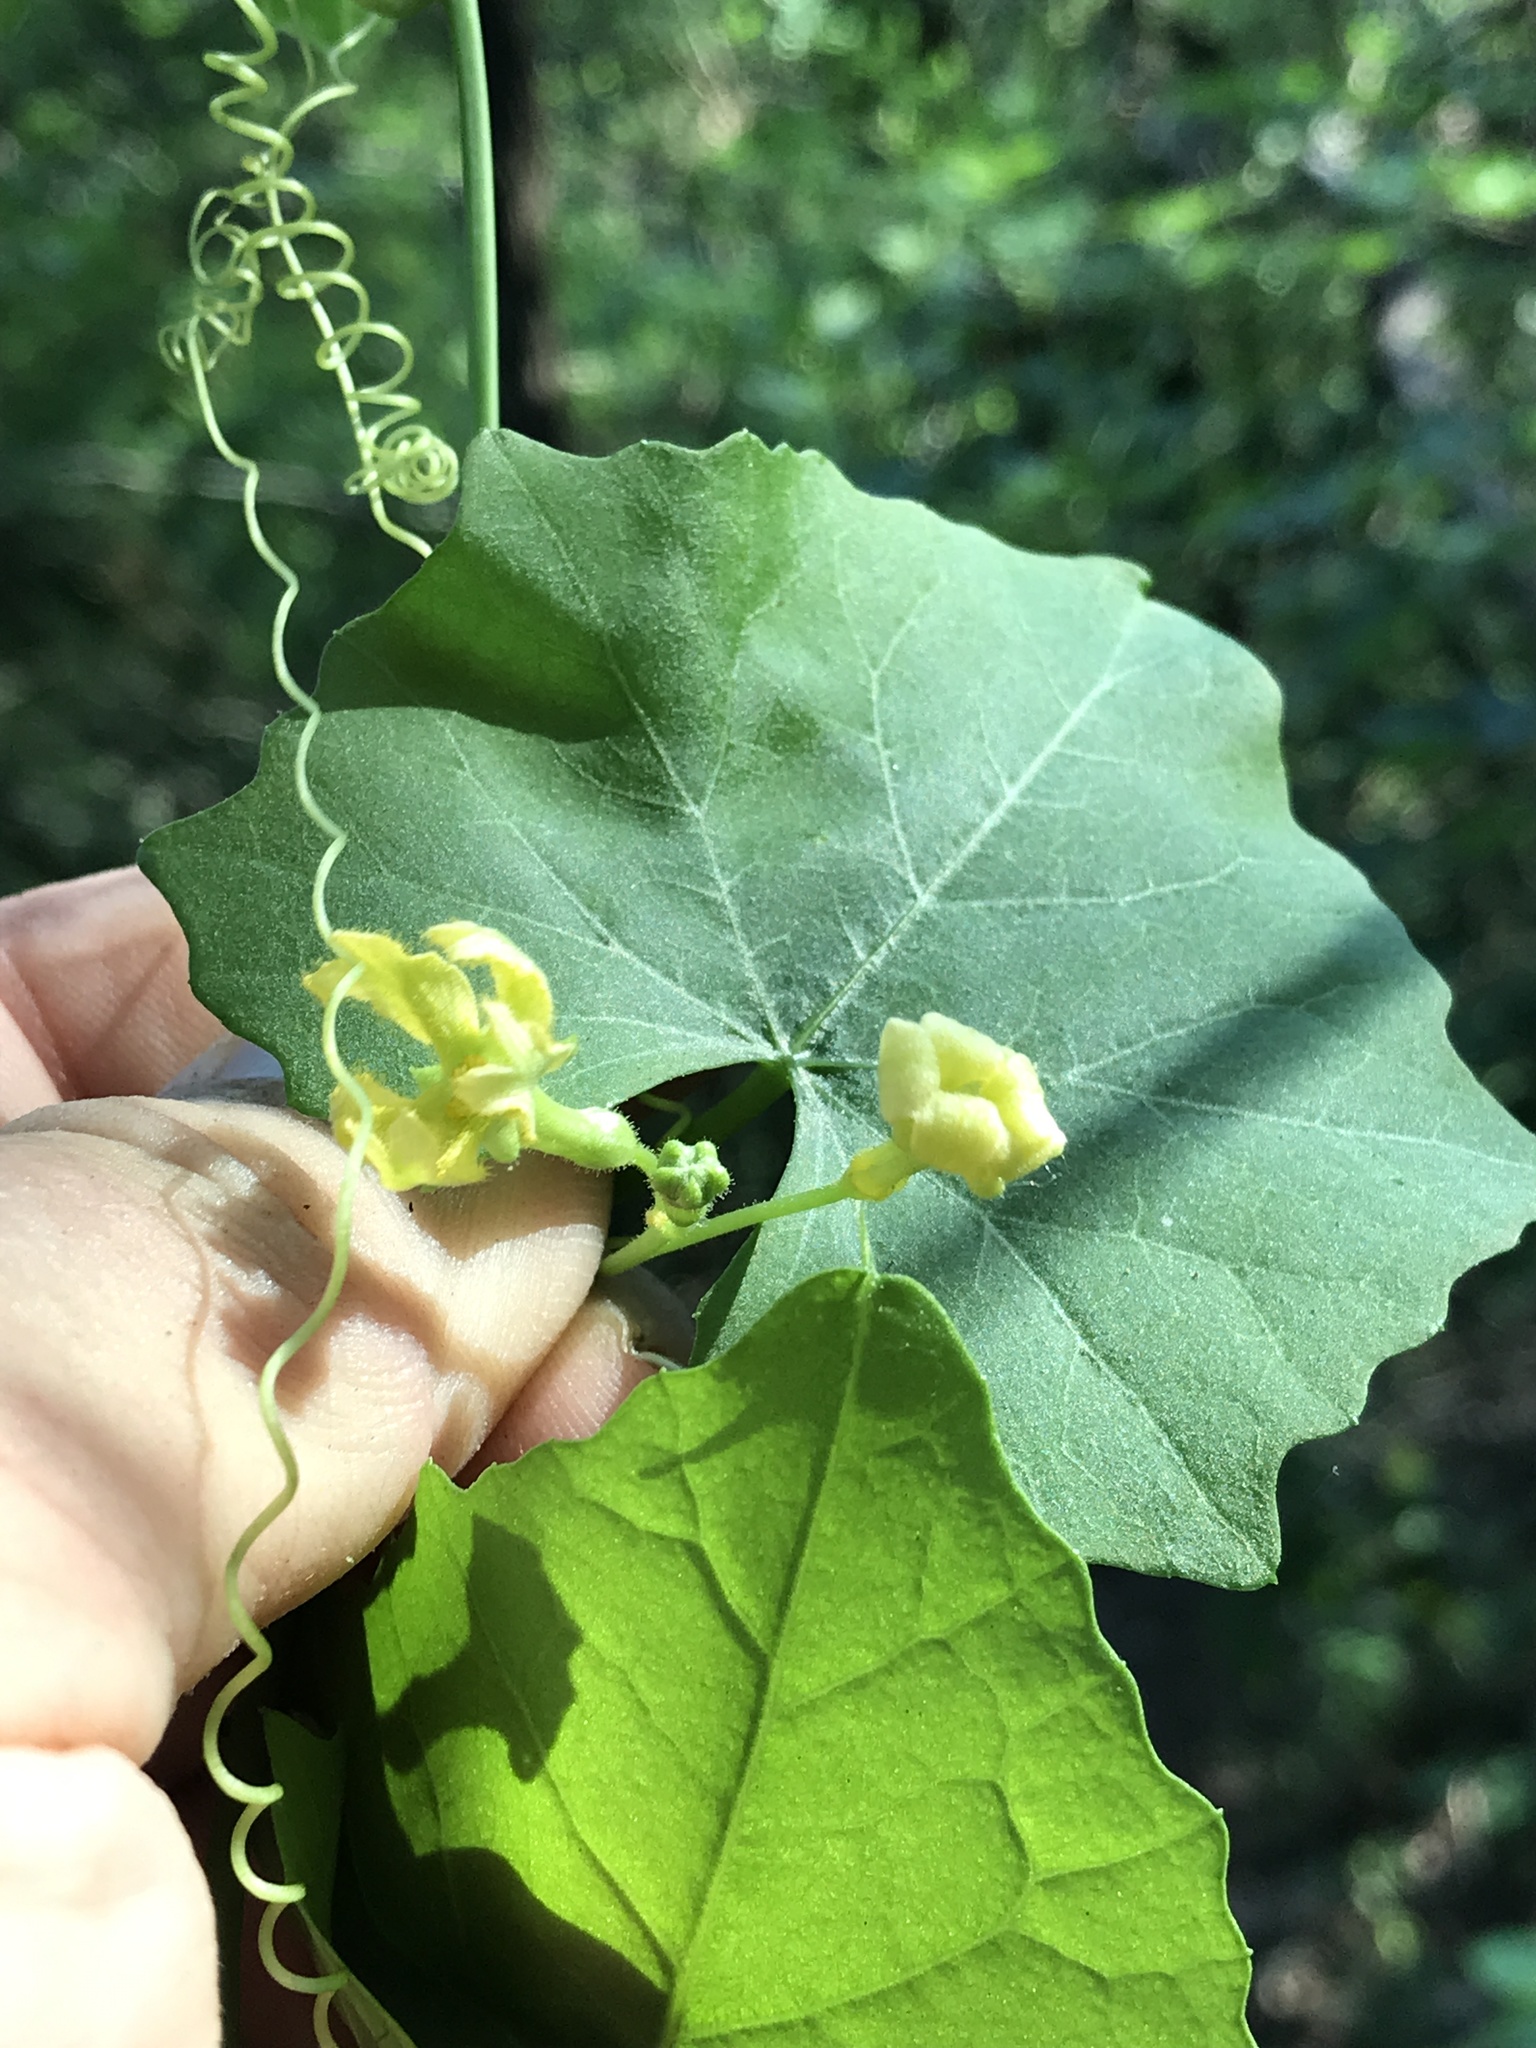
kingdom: Plantae
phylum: Tracheophyta
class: Magnoliopsida
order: Cucurbitales
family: Cucurbitaceae
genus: Ibervillea
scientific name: Ibervillea lindheimeri
